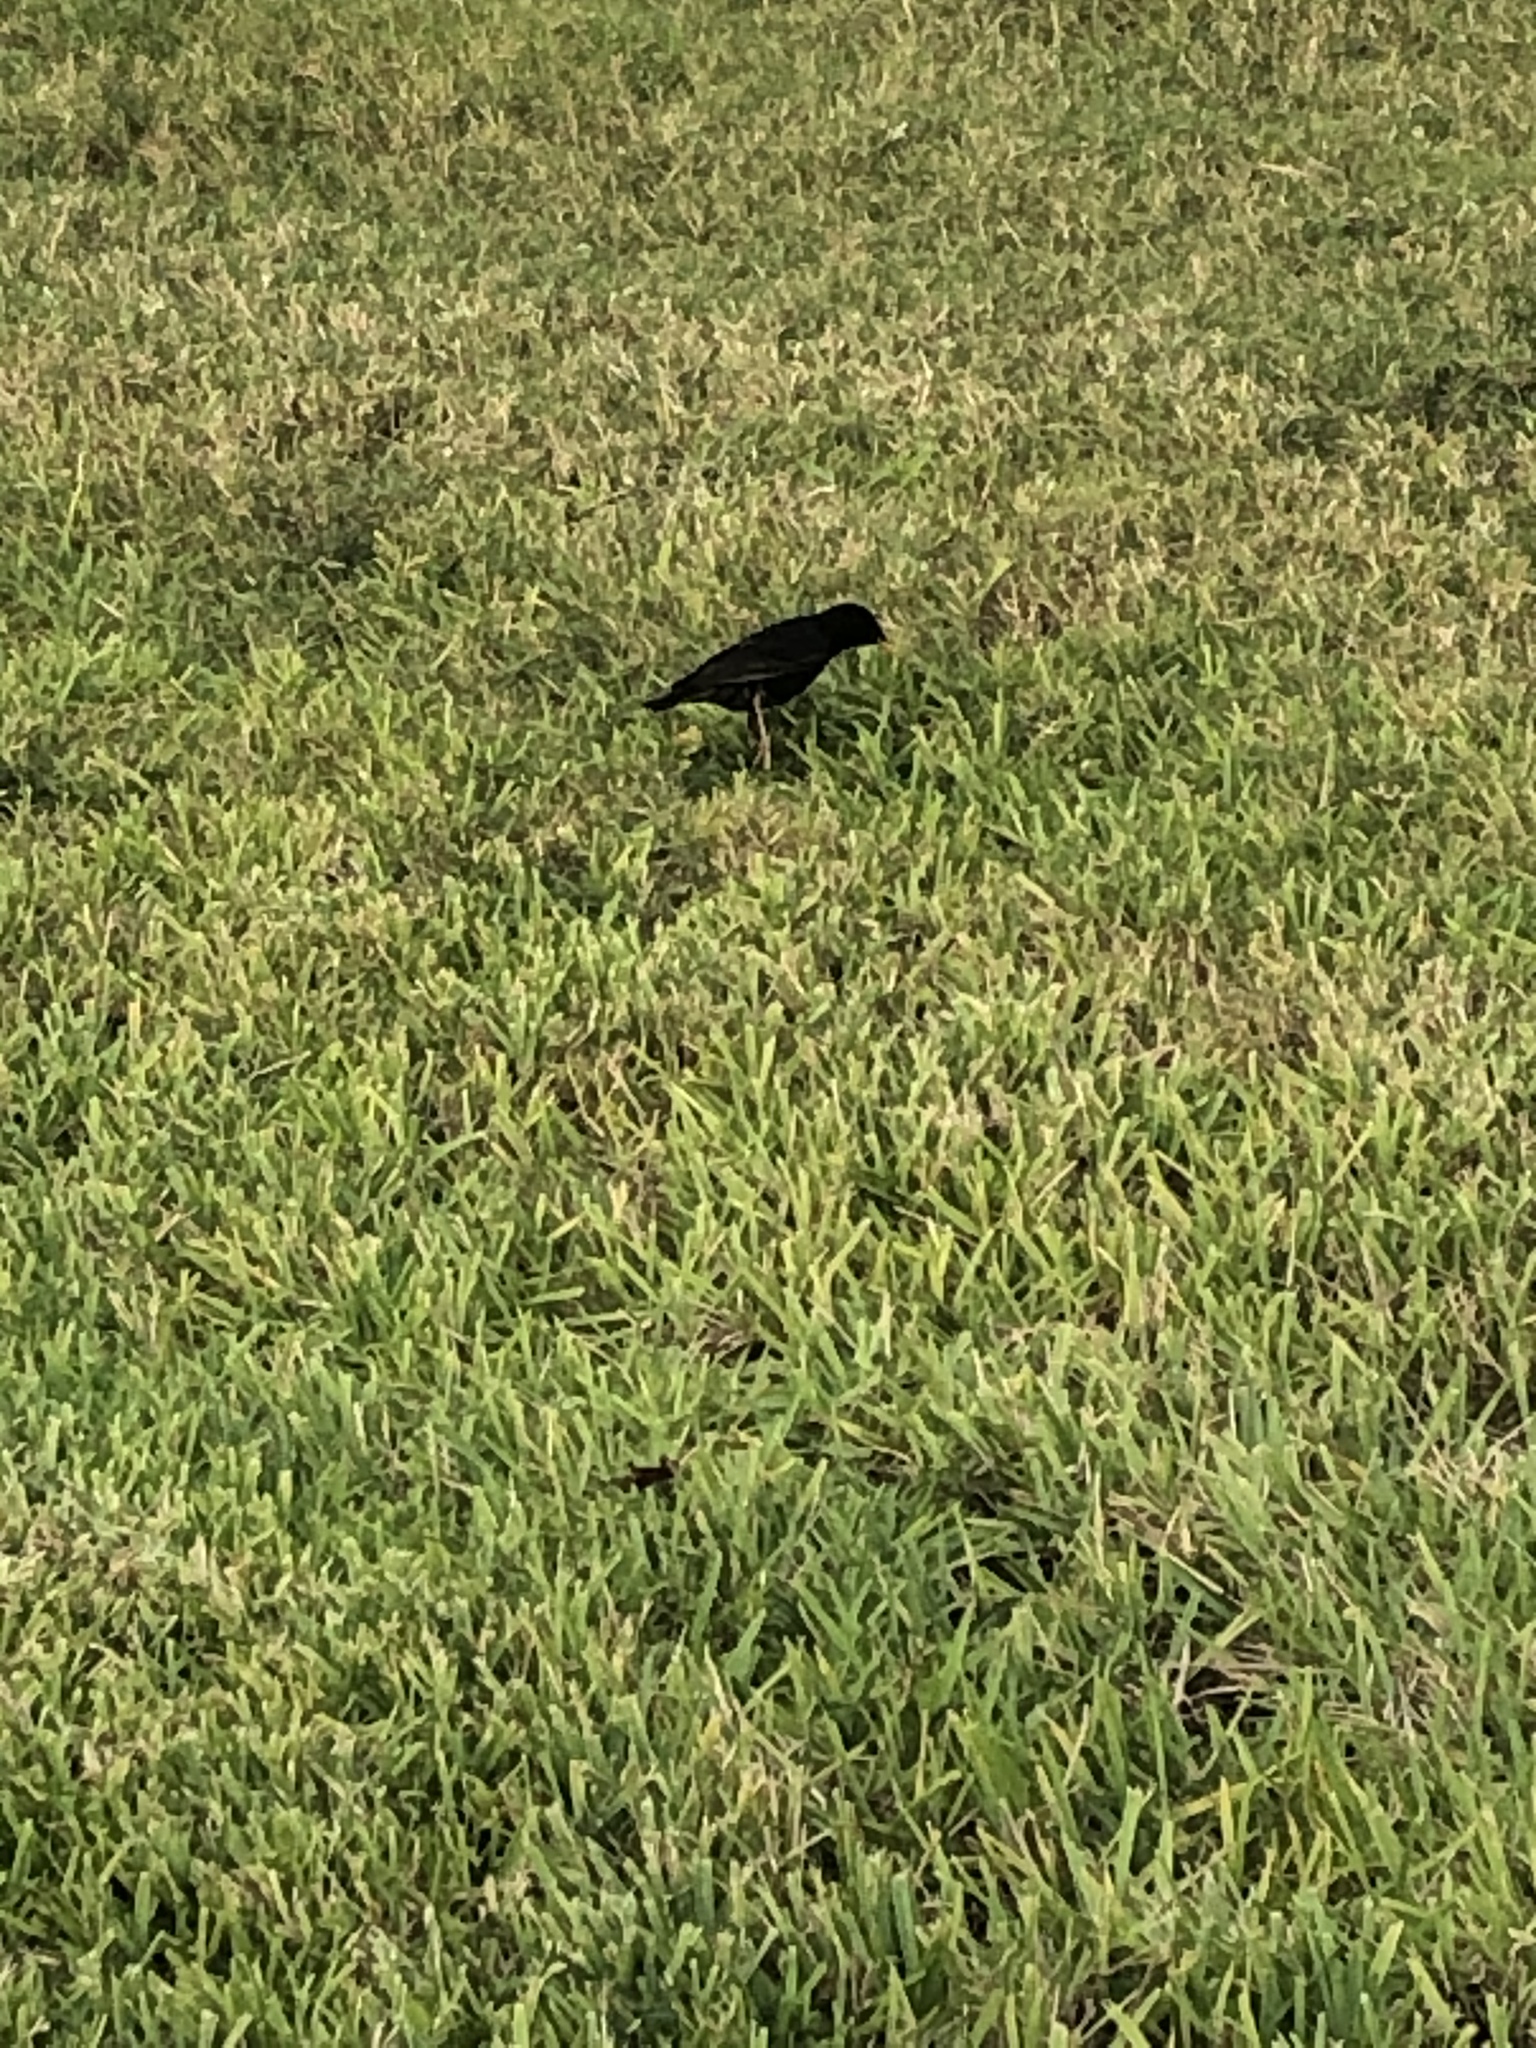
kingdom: Animalia
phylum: Chordata
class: Aves
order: Passeriformes
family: Sturnidae
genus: Sturnus
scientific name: Sturnus vulgaris
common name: Common starling
